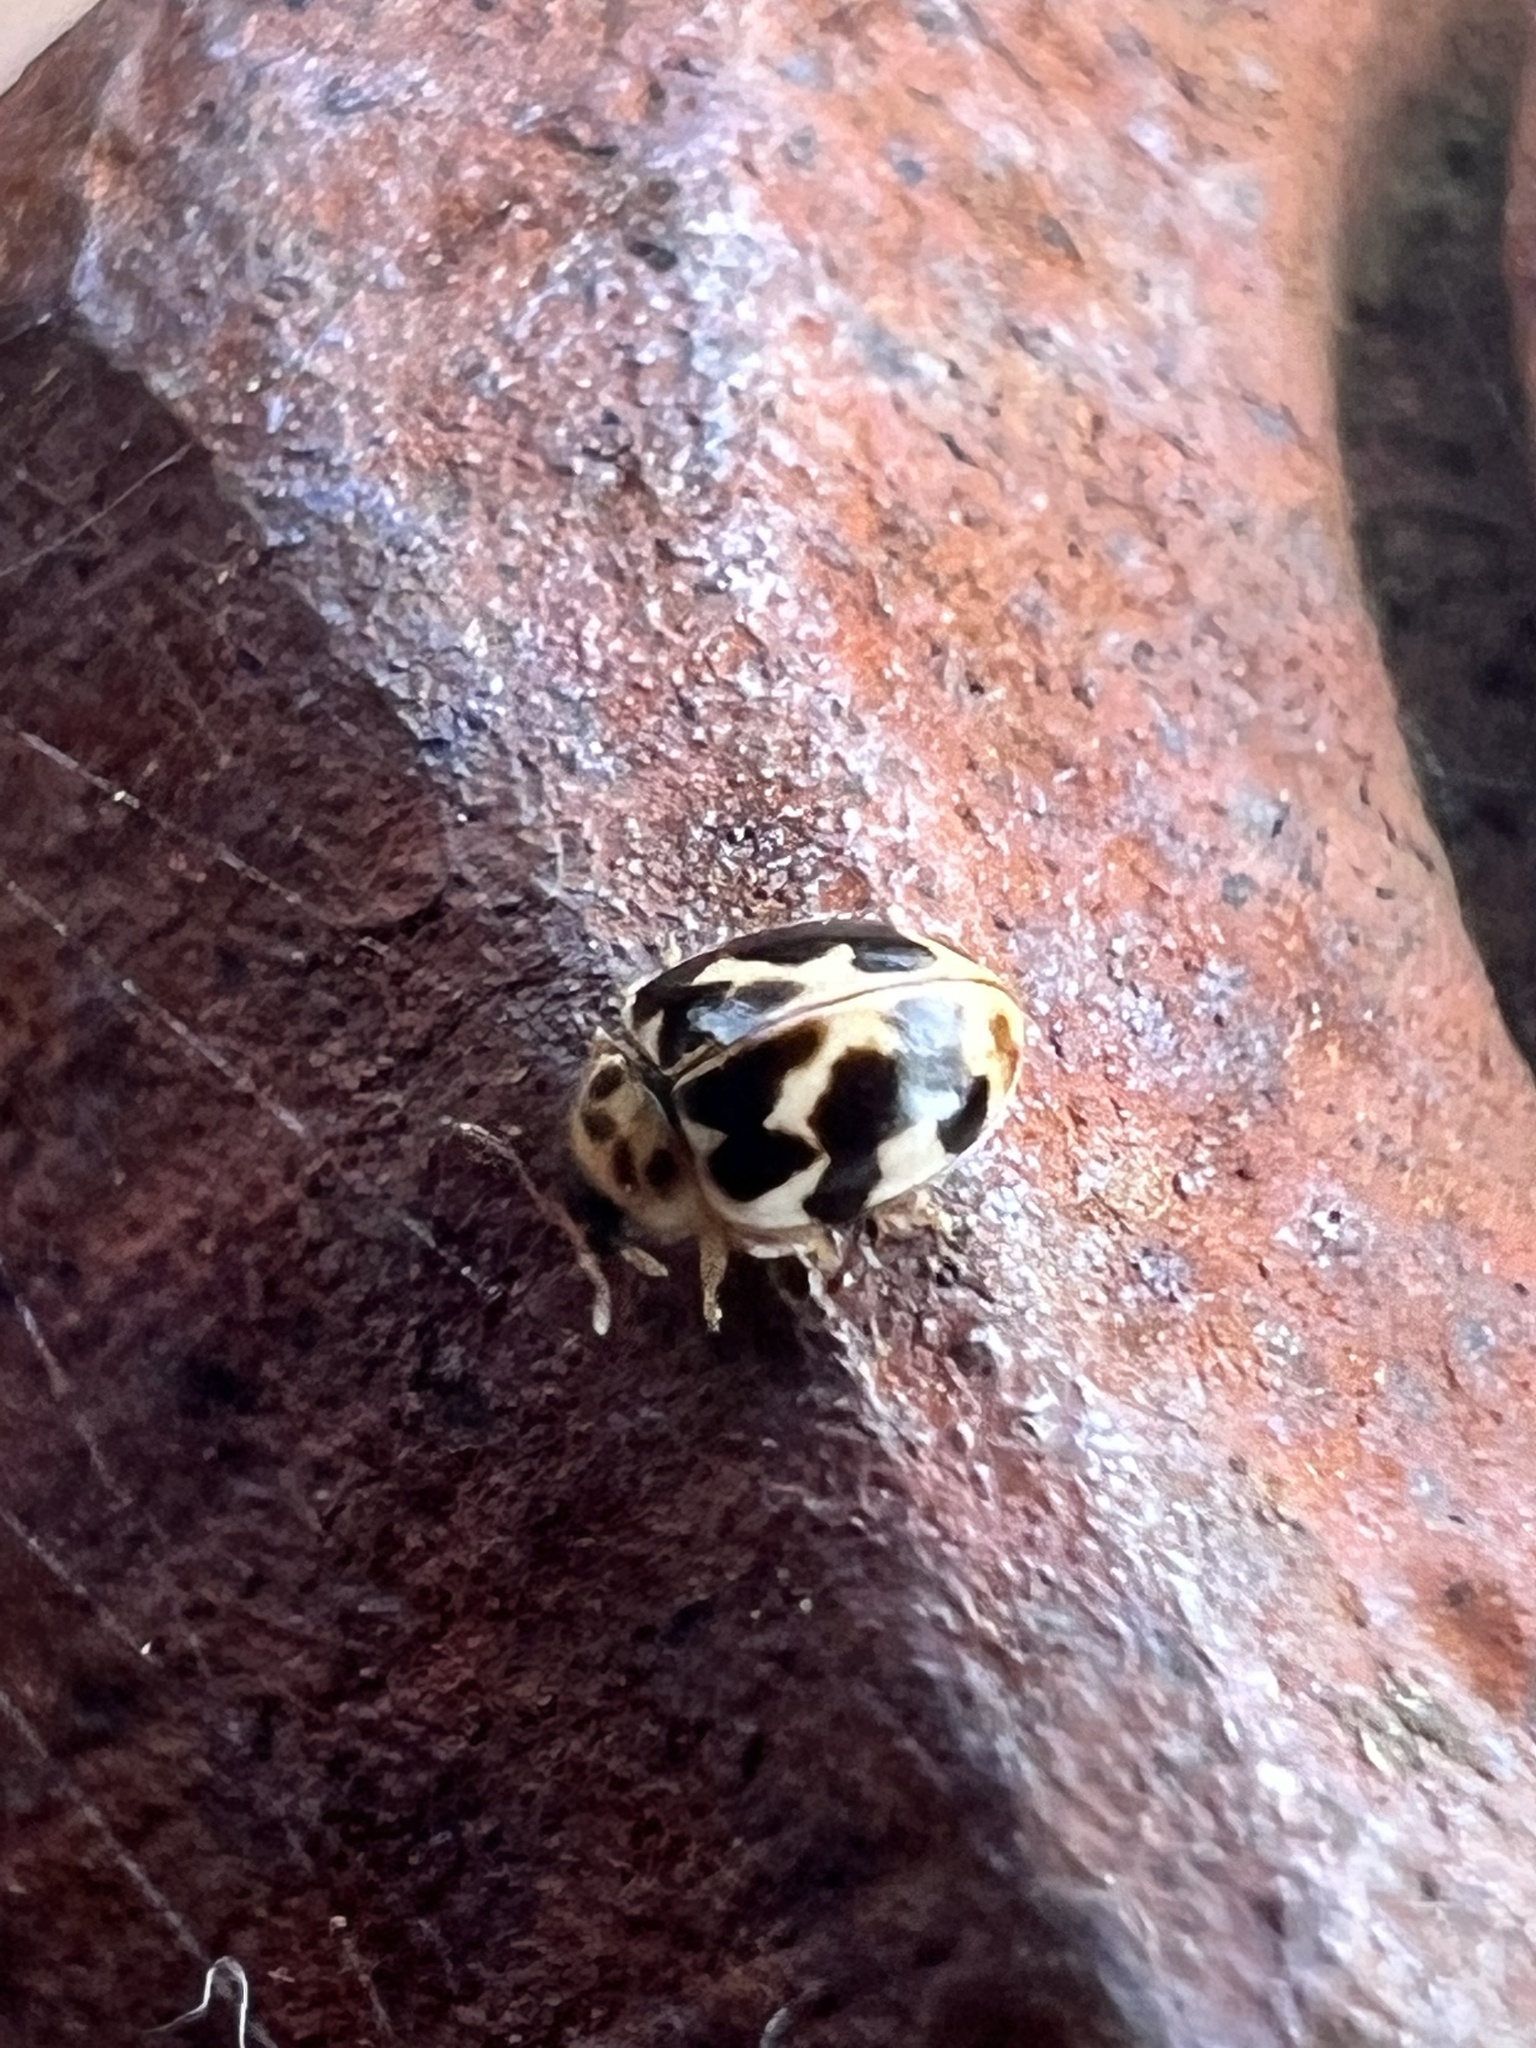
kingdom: Animalia
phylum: Arthropoda
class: Insecta
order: Coleoptera
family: Coccinellidae
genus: Psyllobora
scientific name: Psyllobora vigintimaculata
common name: Ladybird beetle
